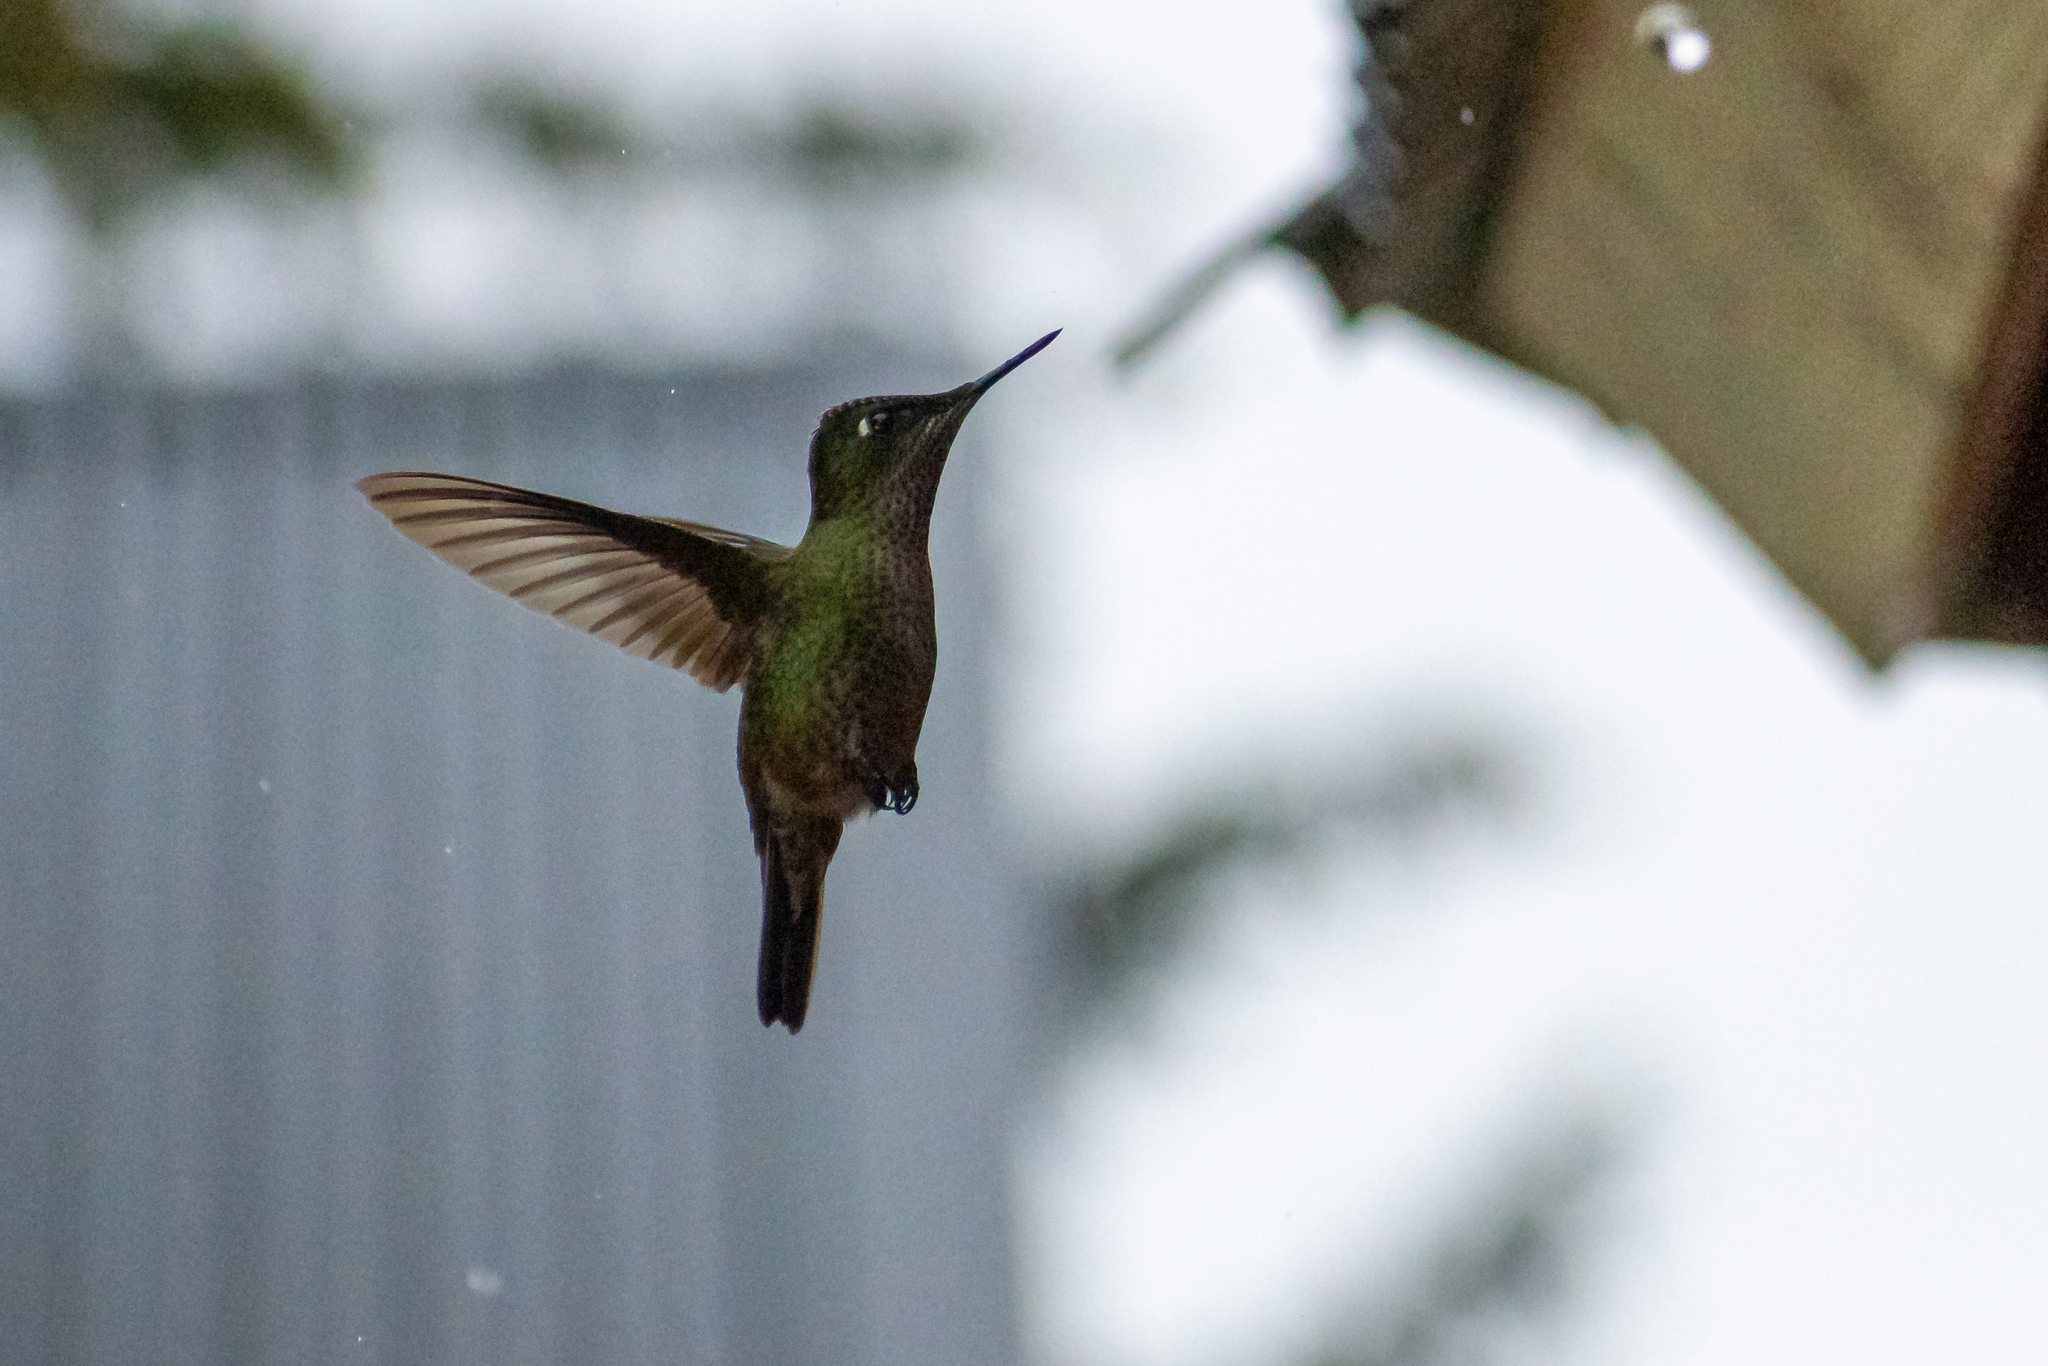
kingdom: Animalia
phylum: Chordata
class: Aves
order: Apodiformes
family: Trochilidae
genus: Sephanoides
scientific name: Sephanoides sephaniodes
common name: Green-backed firecrown
